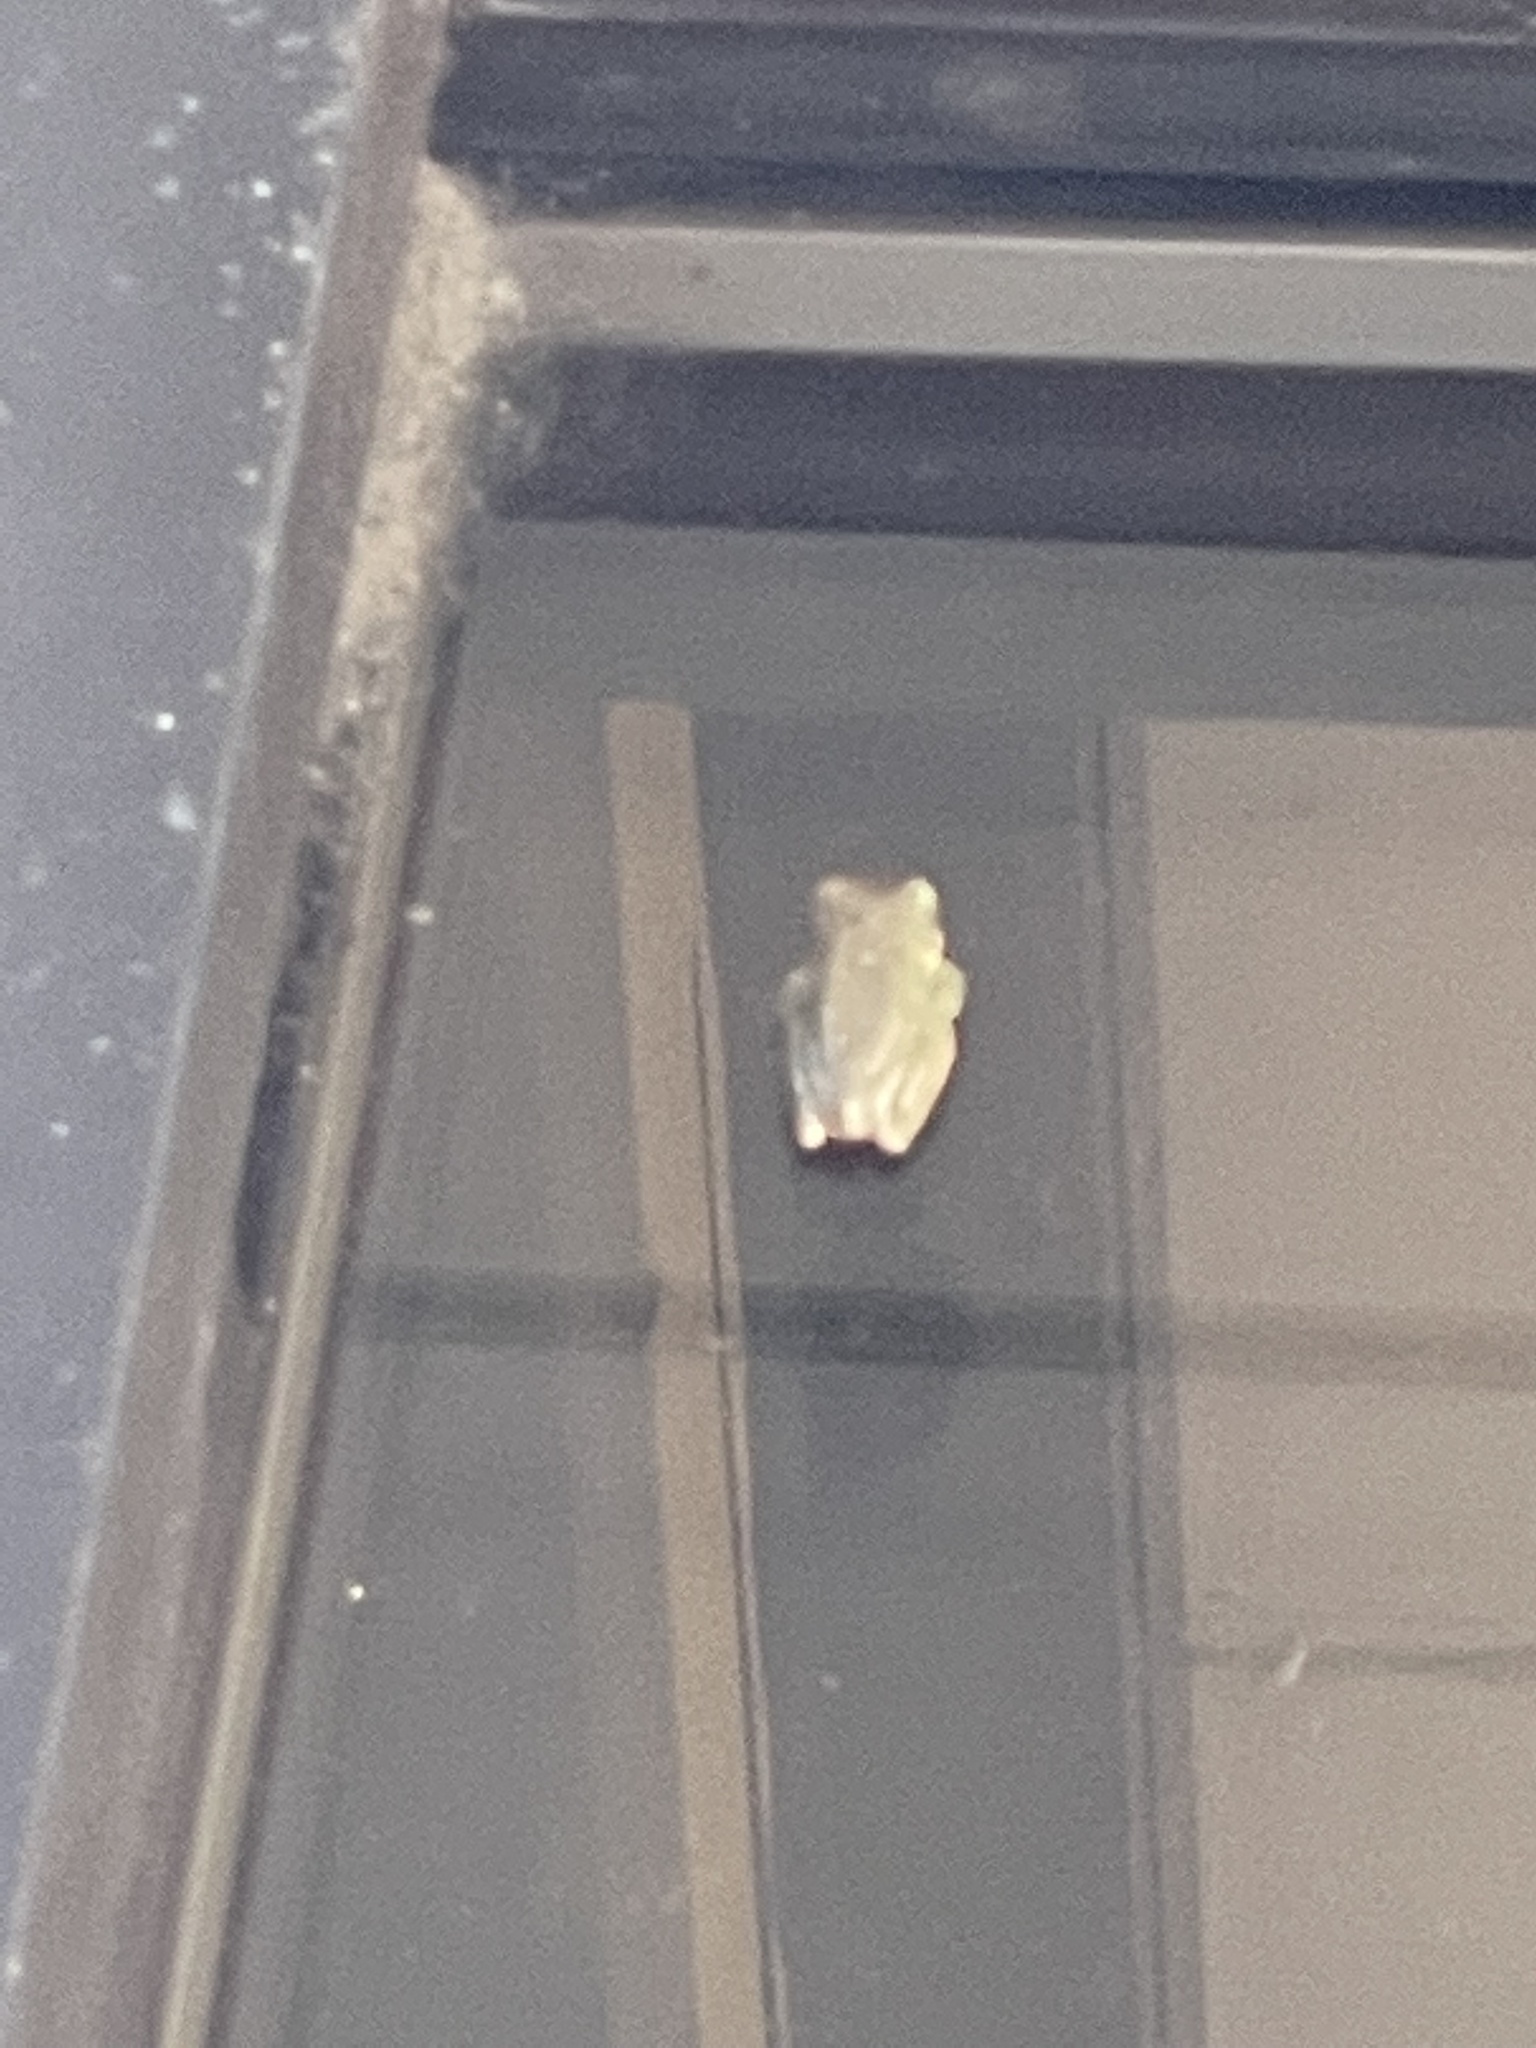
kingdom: Animalia
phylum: Chordata
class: Amphibia
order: Anura
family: Hylidae
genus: Dryophytes
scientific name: Dryophytes squirellus
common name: Squirrel treefrog
